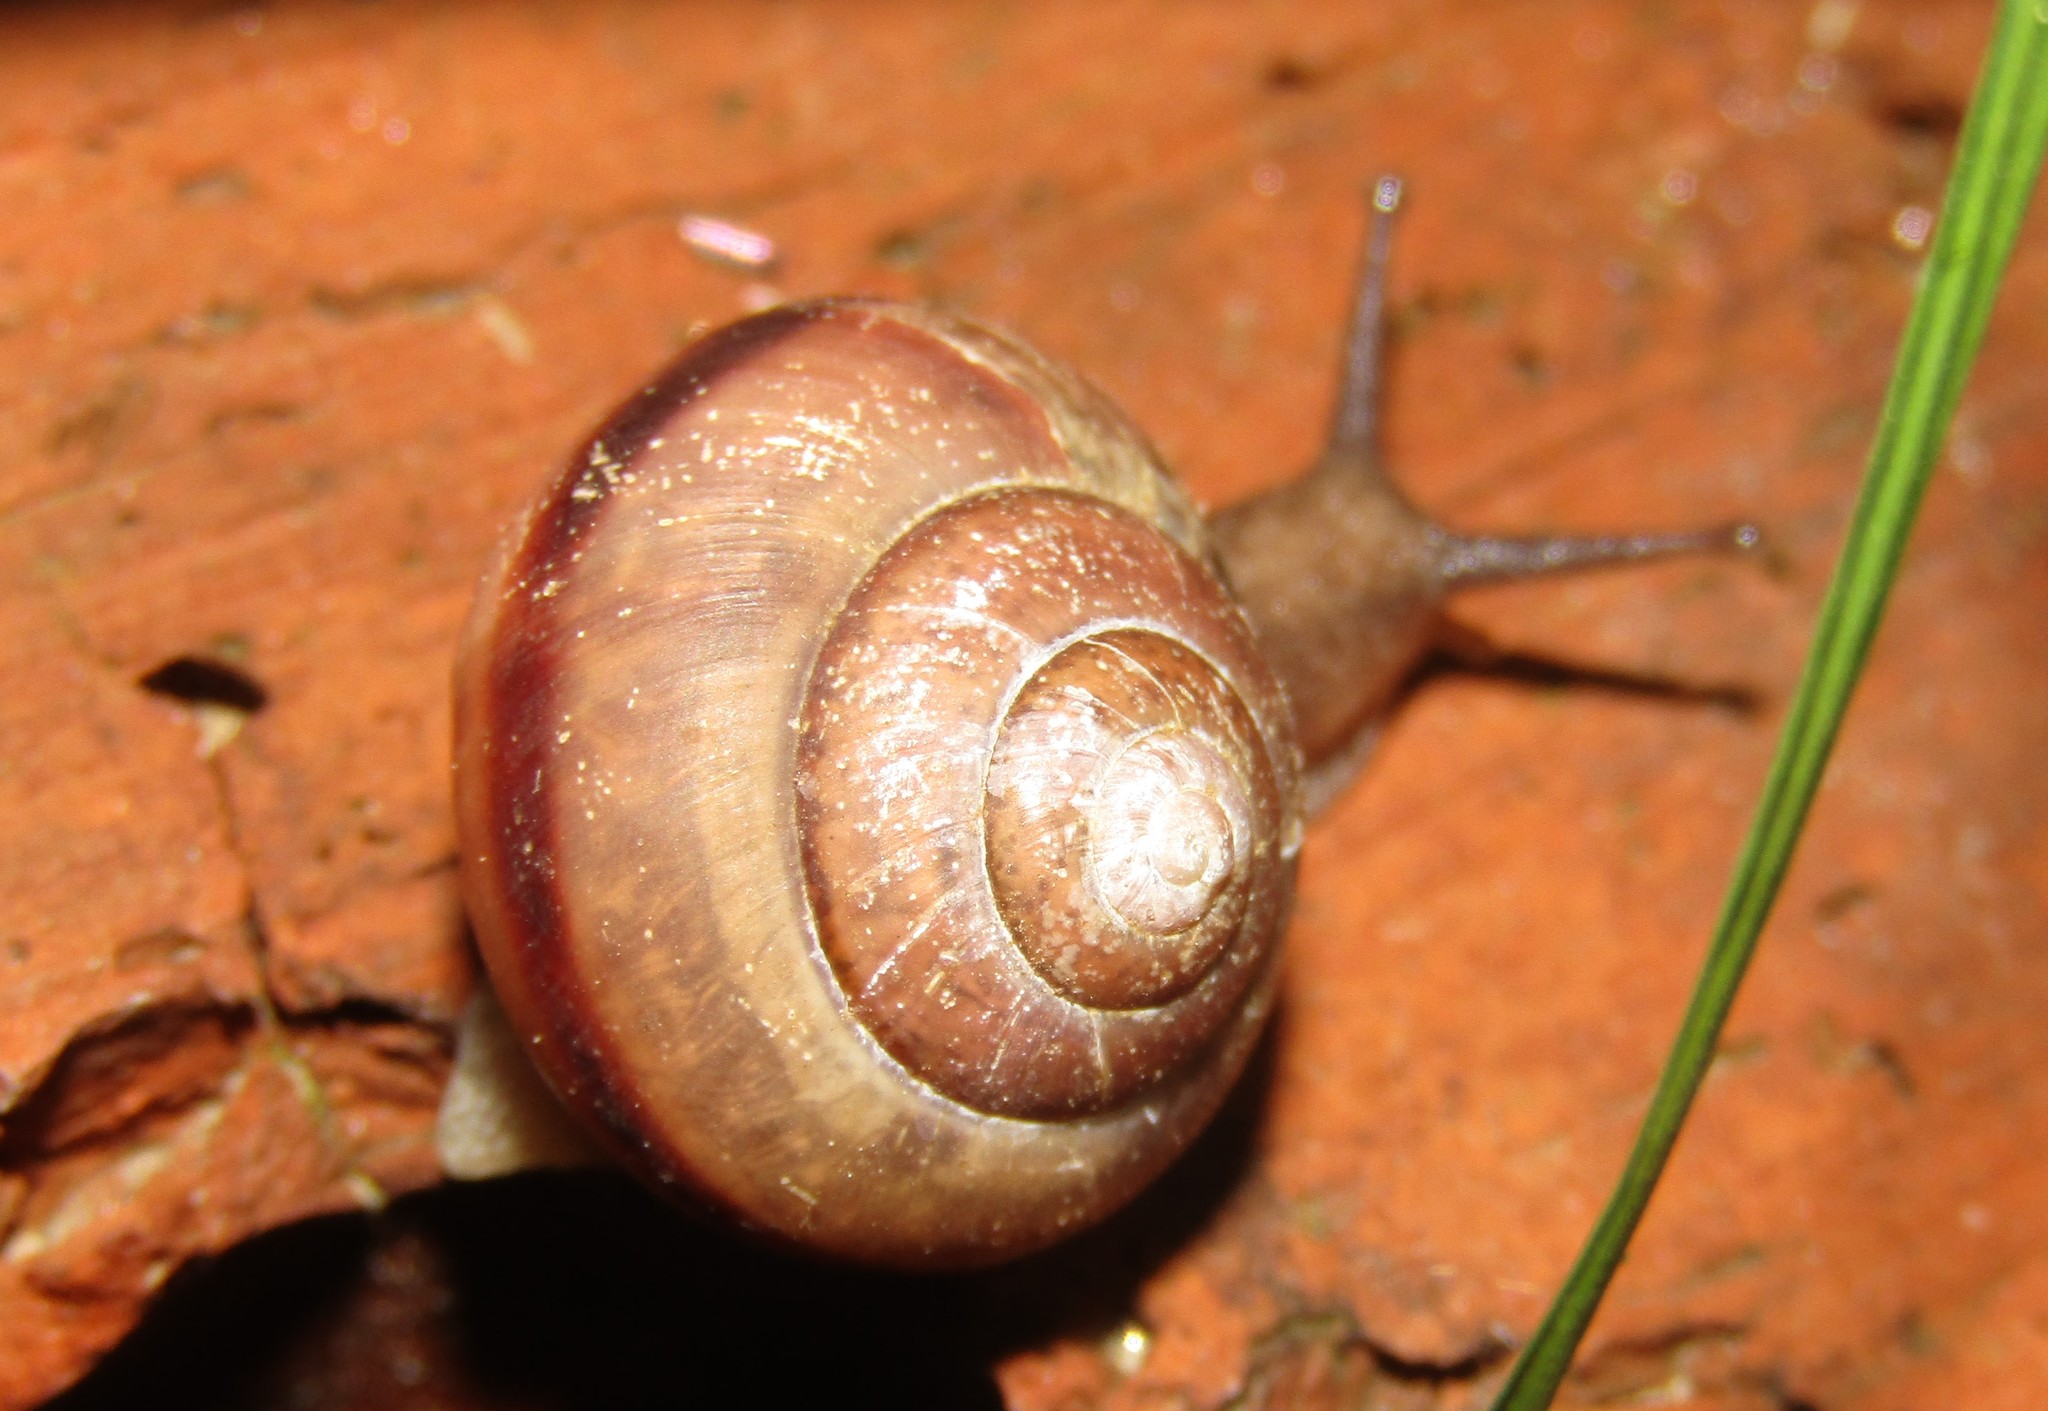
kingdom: Animalia
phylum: Mollusca
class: Gastropoda
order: Stylommatophora
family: Camaenidae
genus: Fruticicola
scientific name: Fruticicola fruticum
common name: Bush snail
